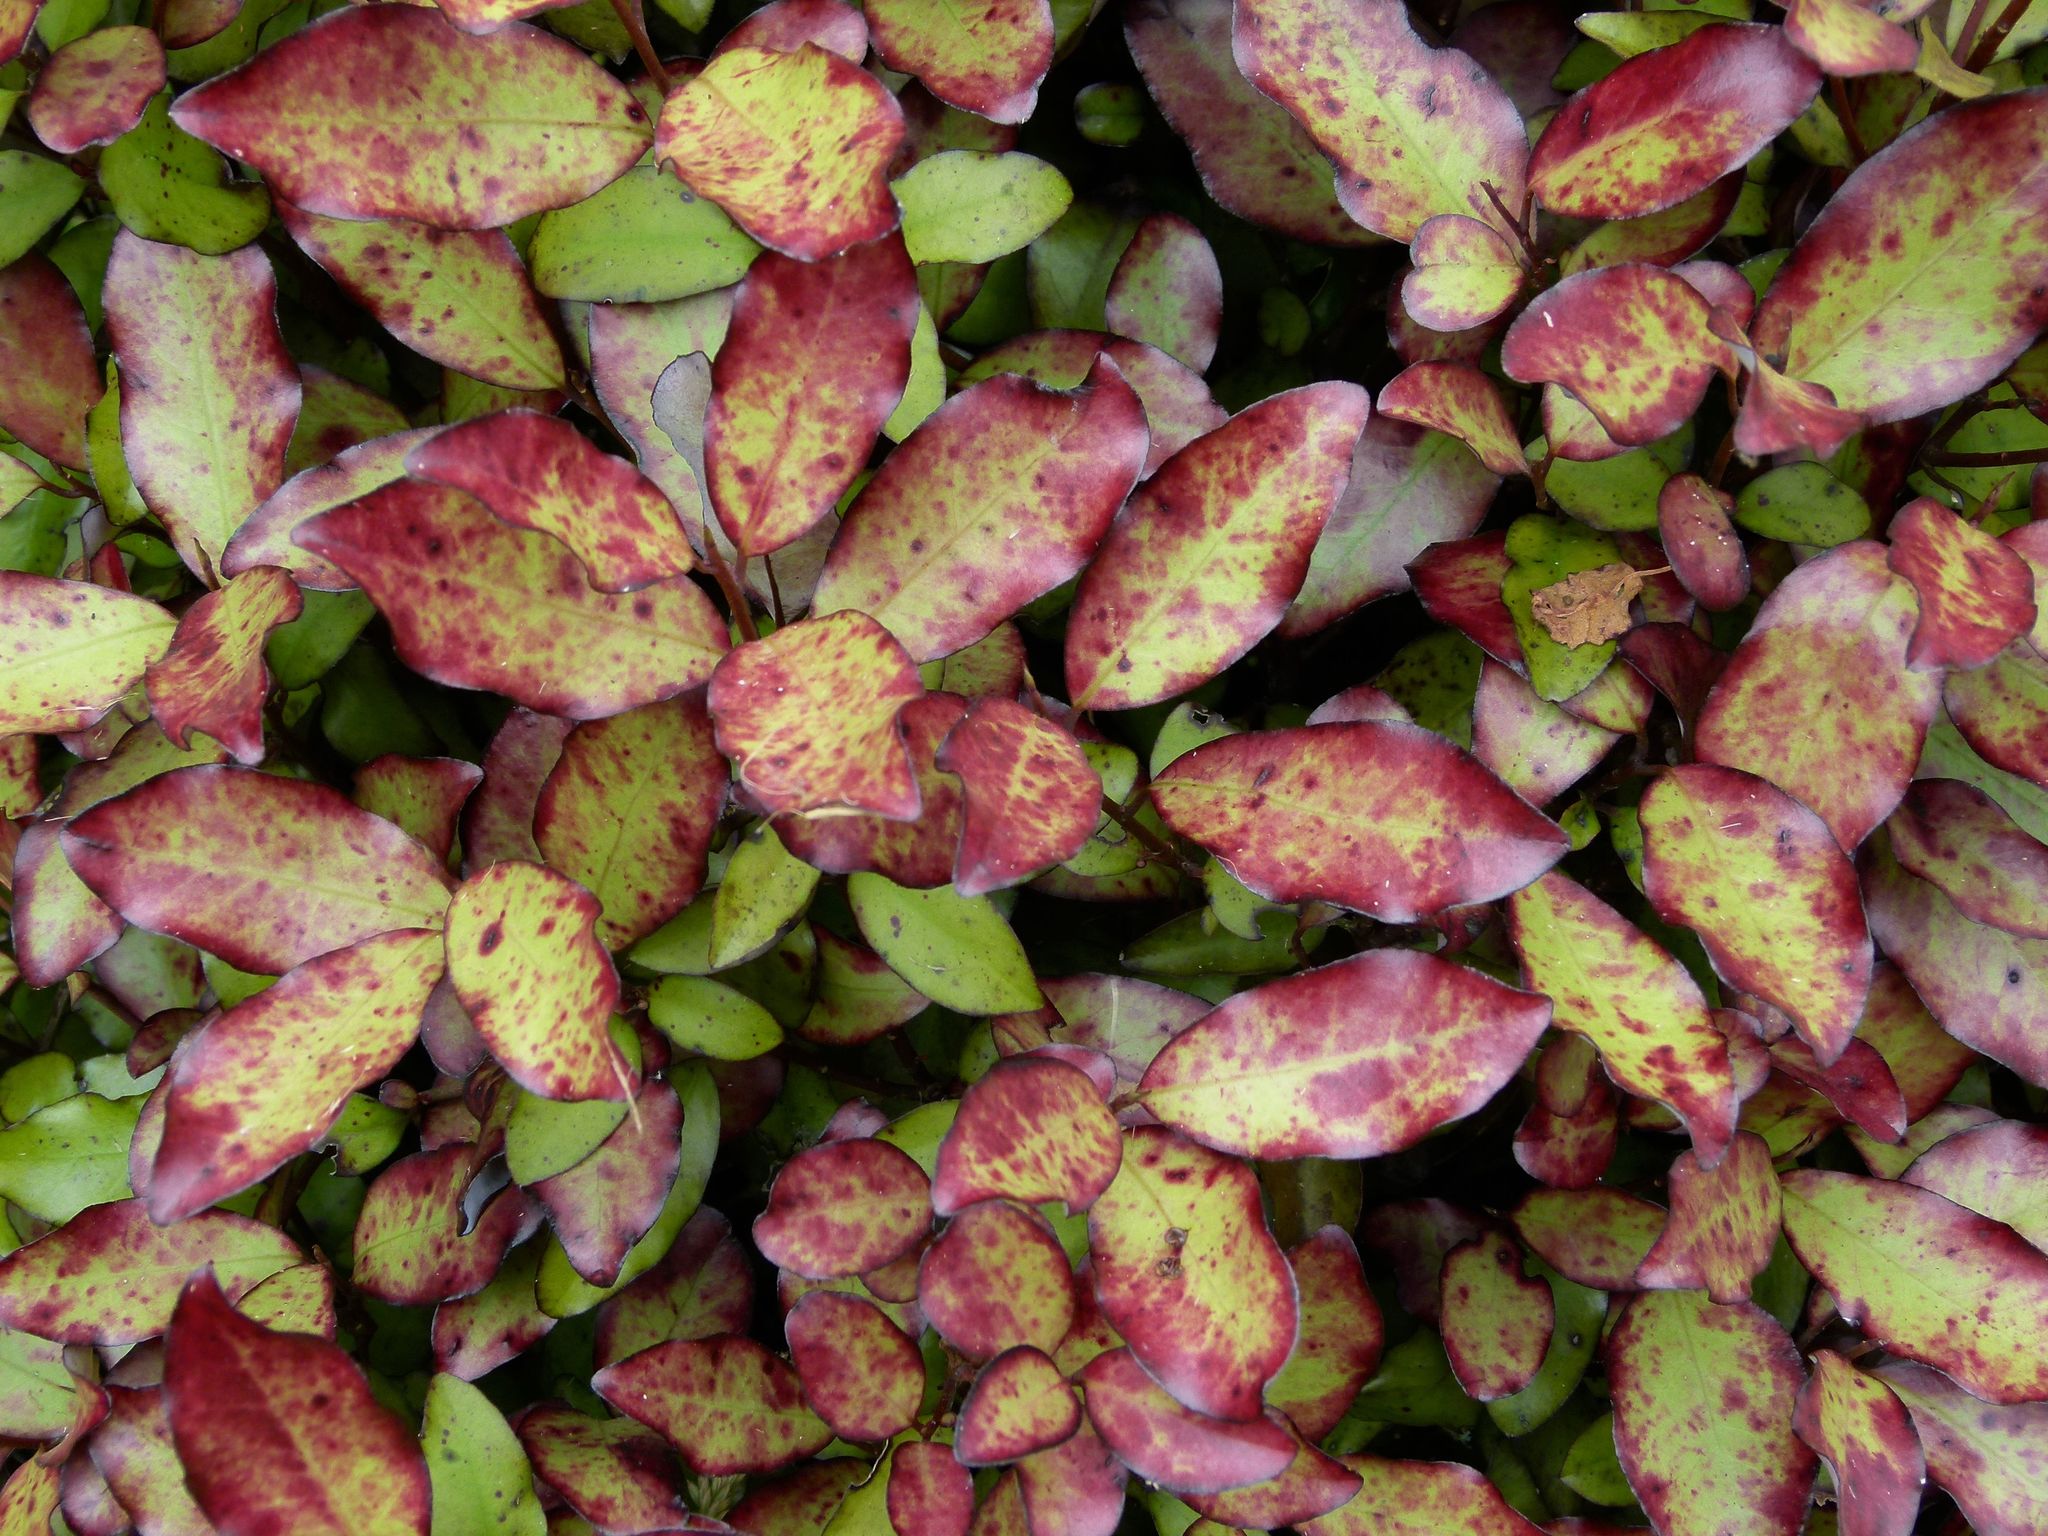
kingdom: Plantae
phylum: Tracheophyta
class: Magnoliopsida
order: Canellales
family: Winteraceae
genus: Pseudowintera
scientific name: Pseudowintera colorata
